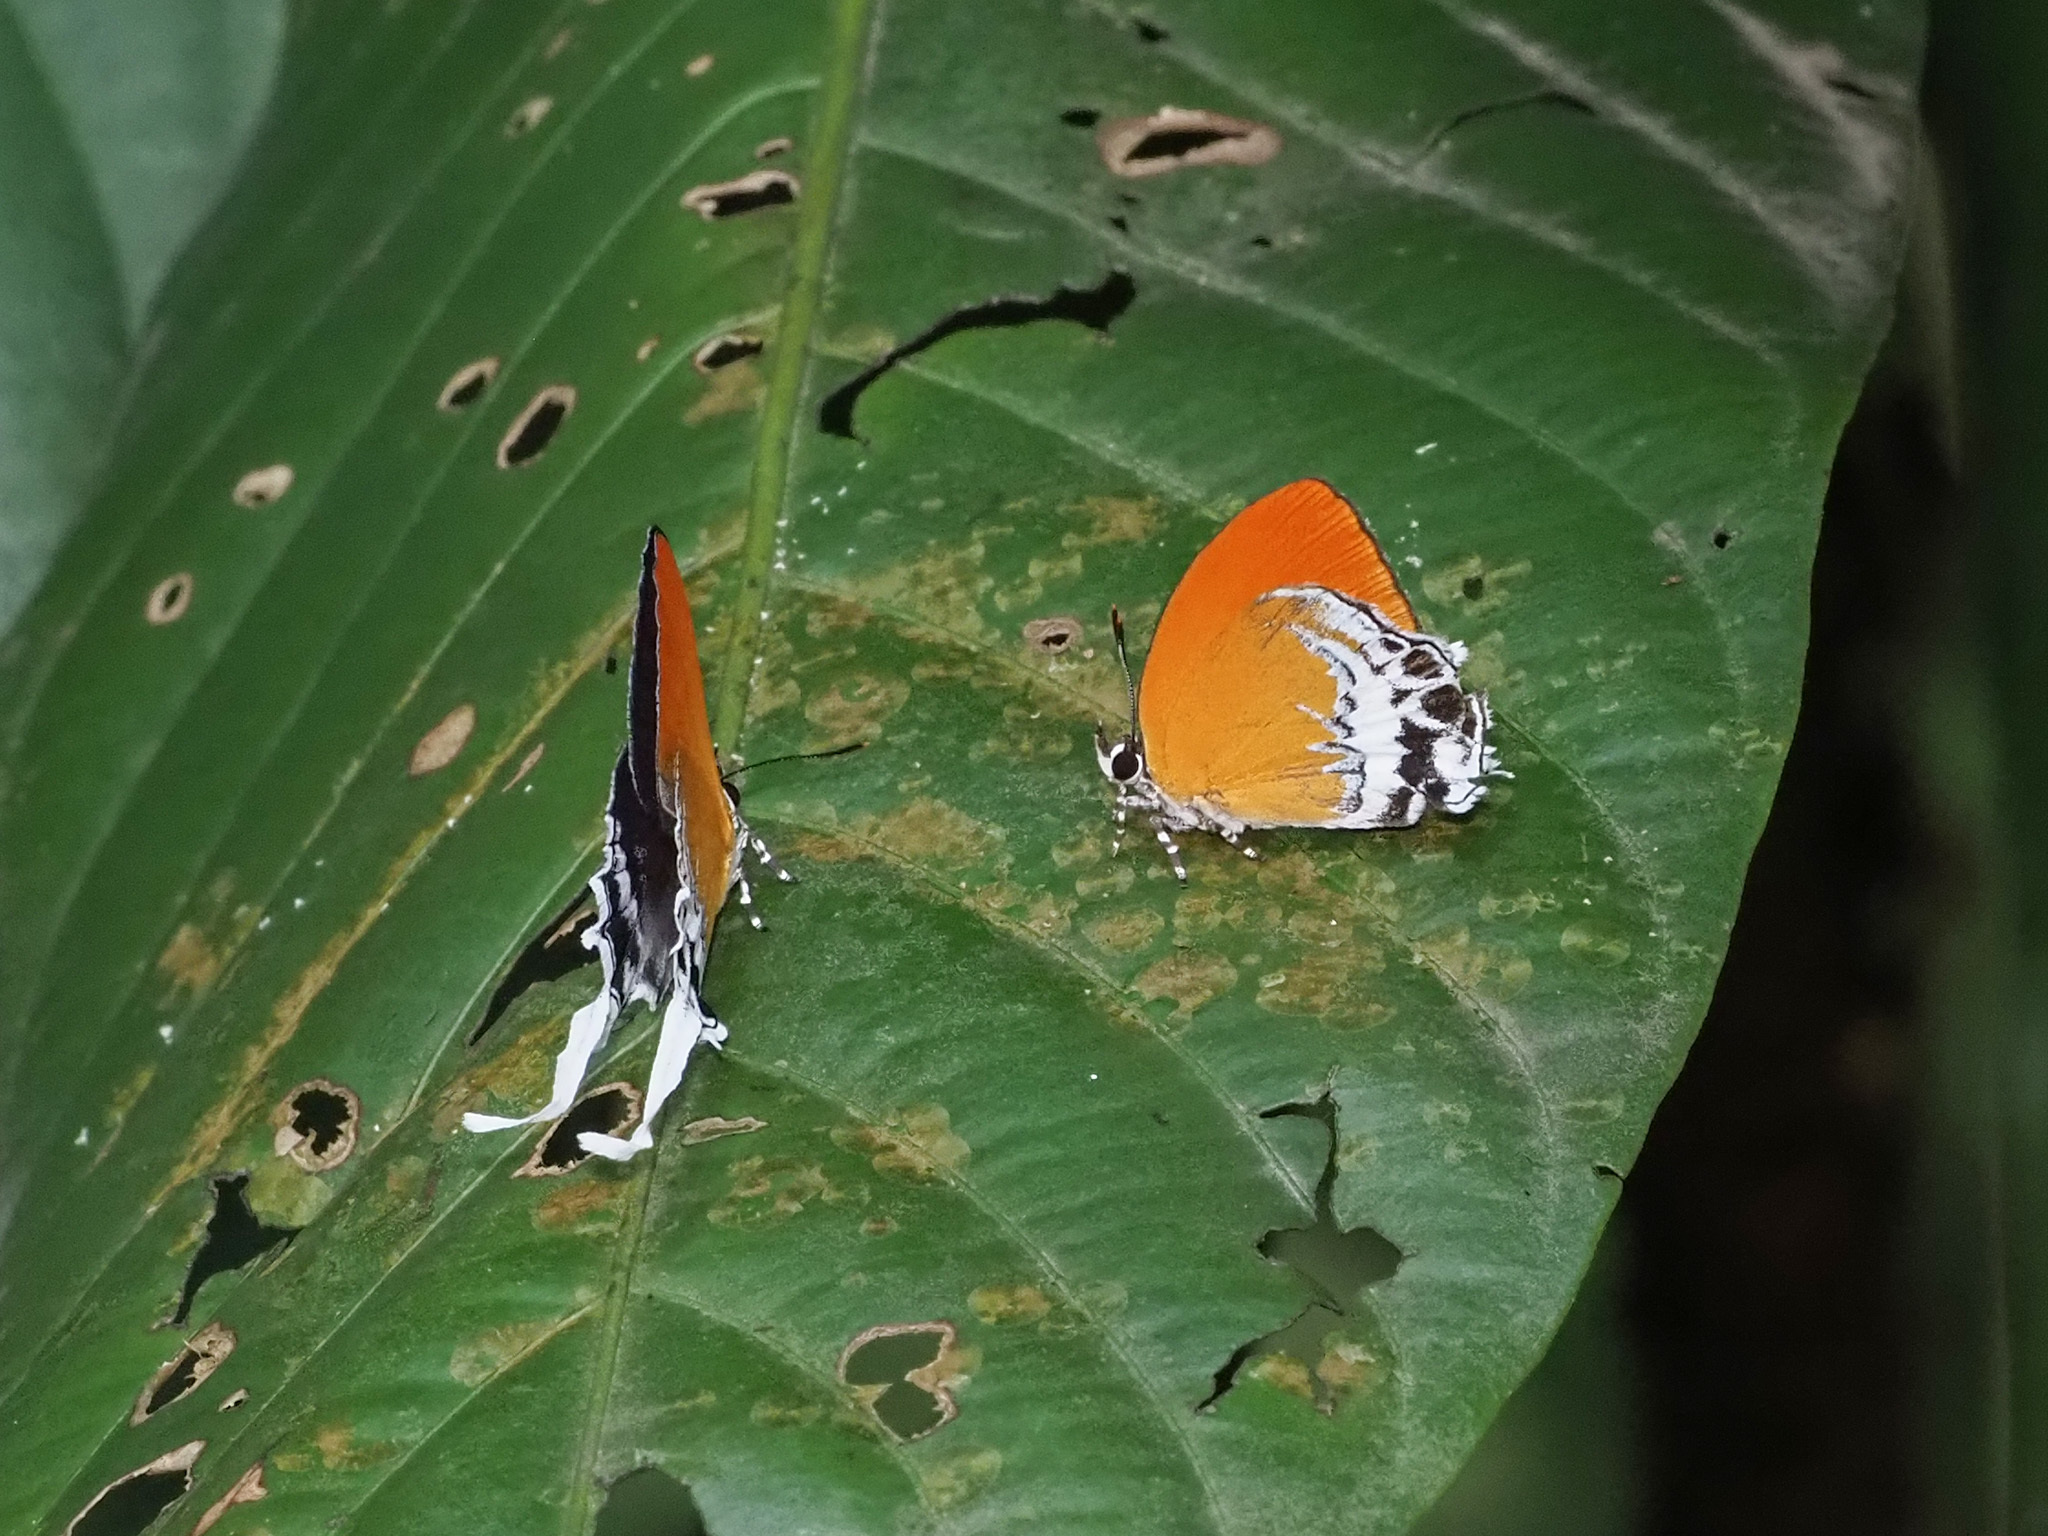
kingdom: Animalia
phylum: Arthropoda
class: Insecta
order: Lepidoptera
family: Lycaenidae
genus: Eooxylides
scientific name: Eooxylides tharis
